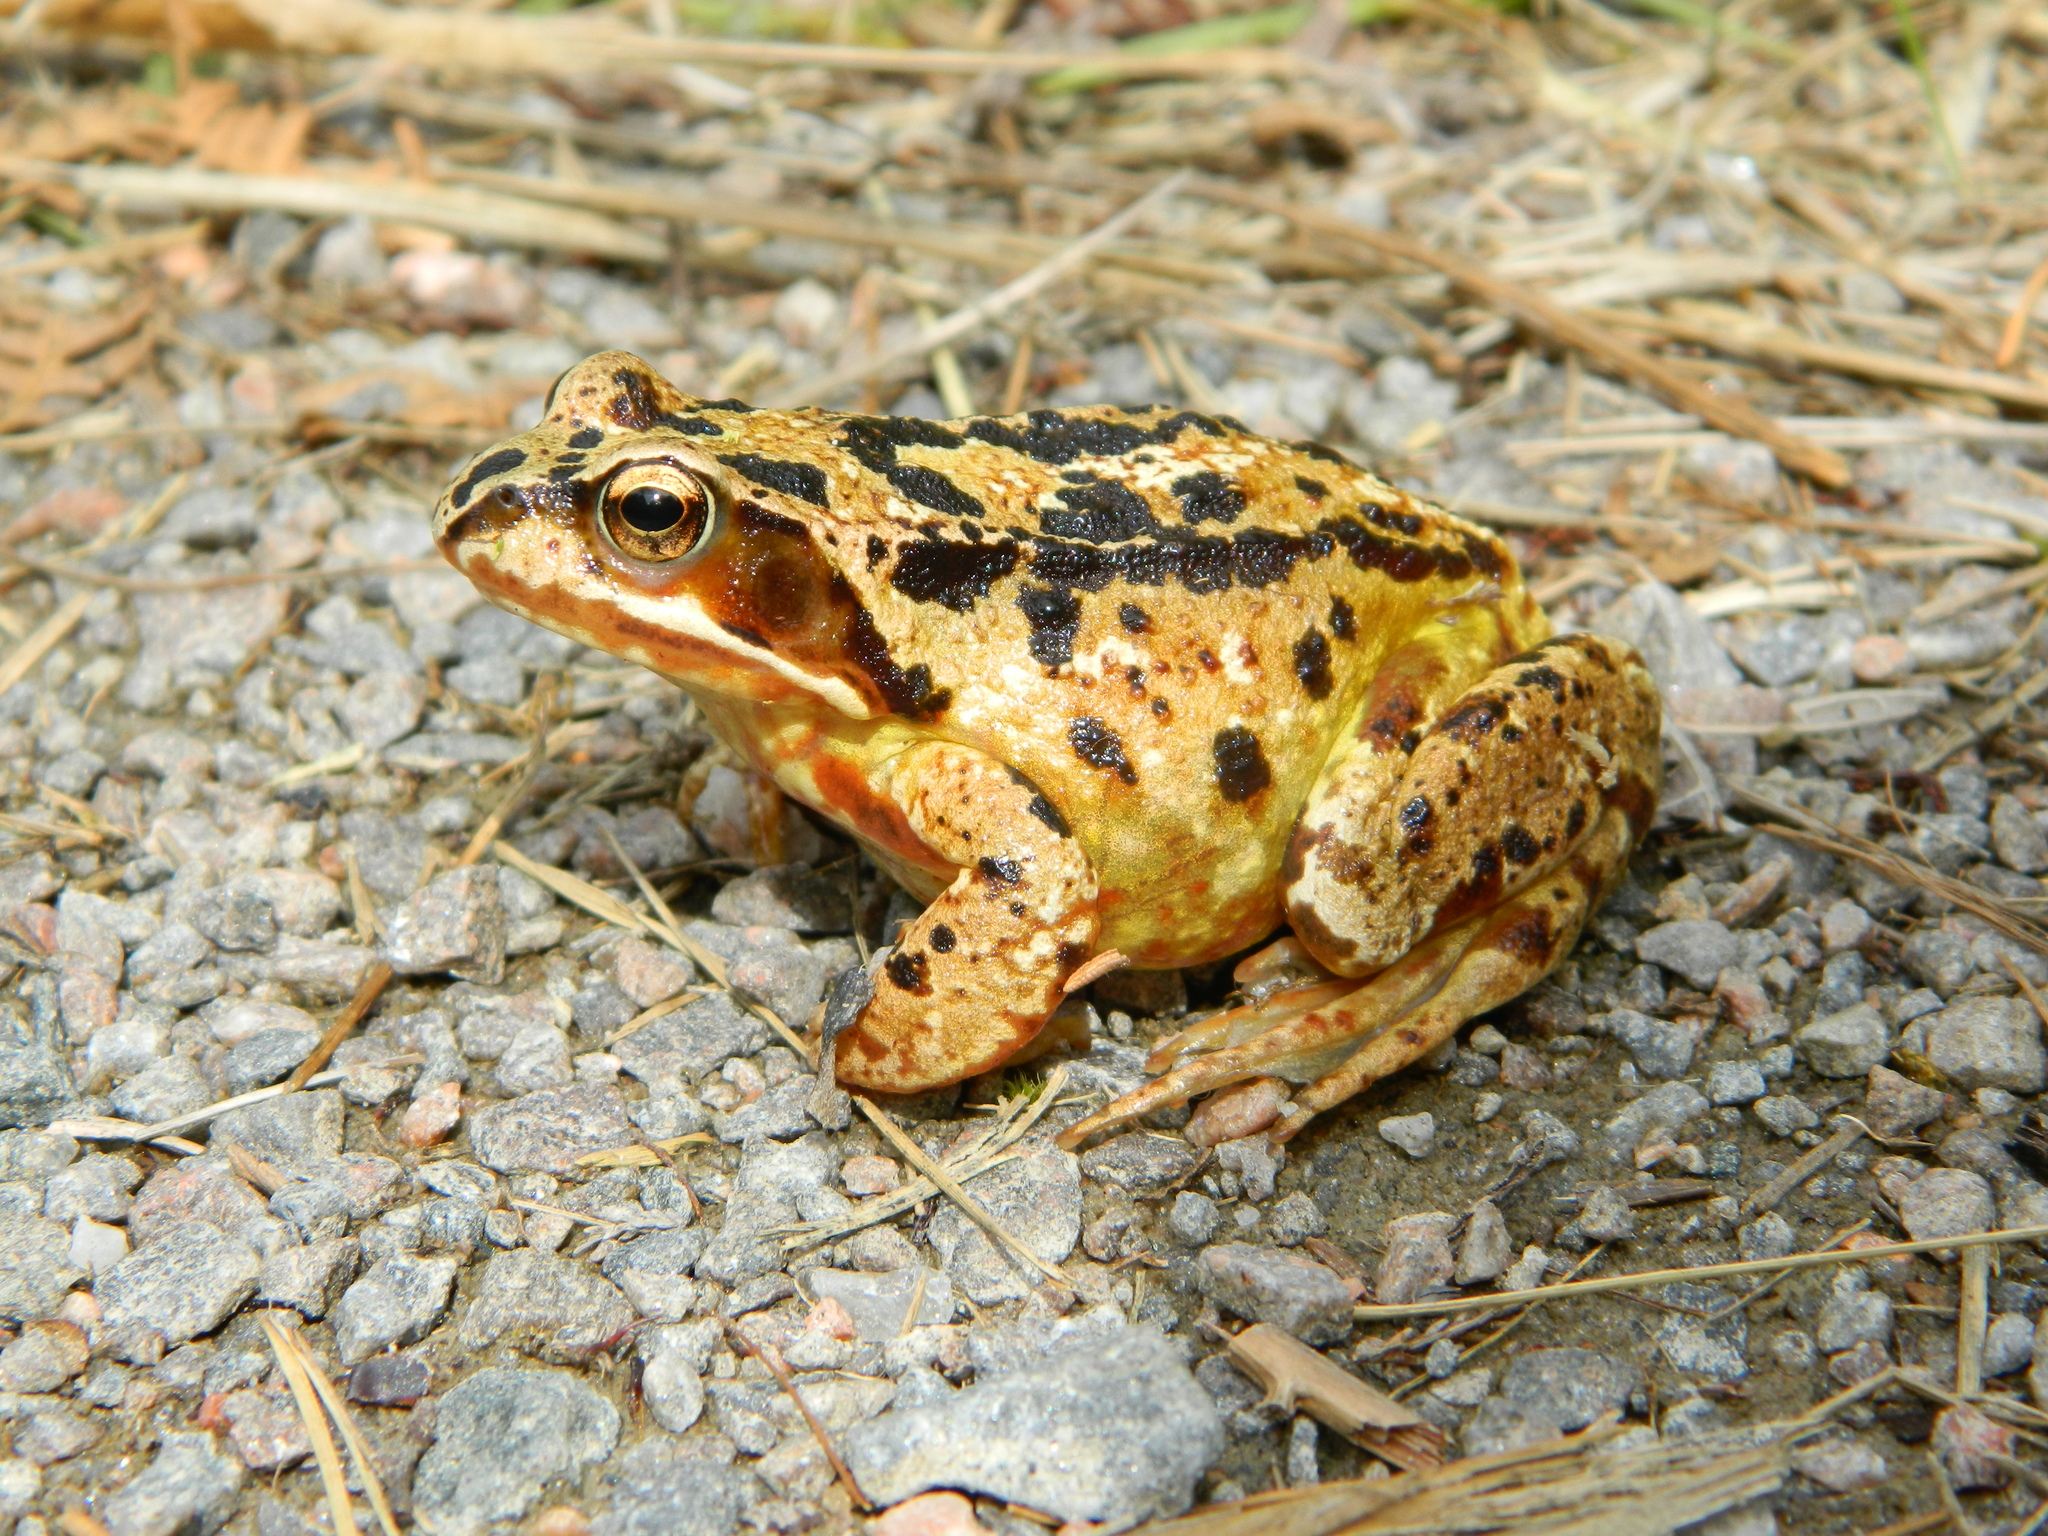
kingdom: Animalia
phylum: Chordata
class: Amphibia
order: Anura
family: Ranidae
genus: Rana
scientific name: Rana temporaria
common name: Common frog
